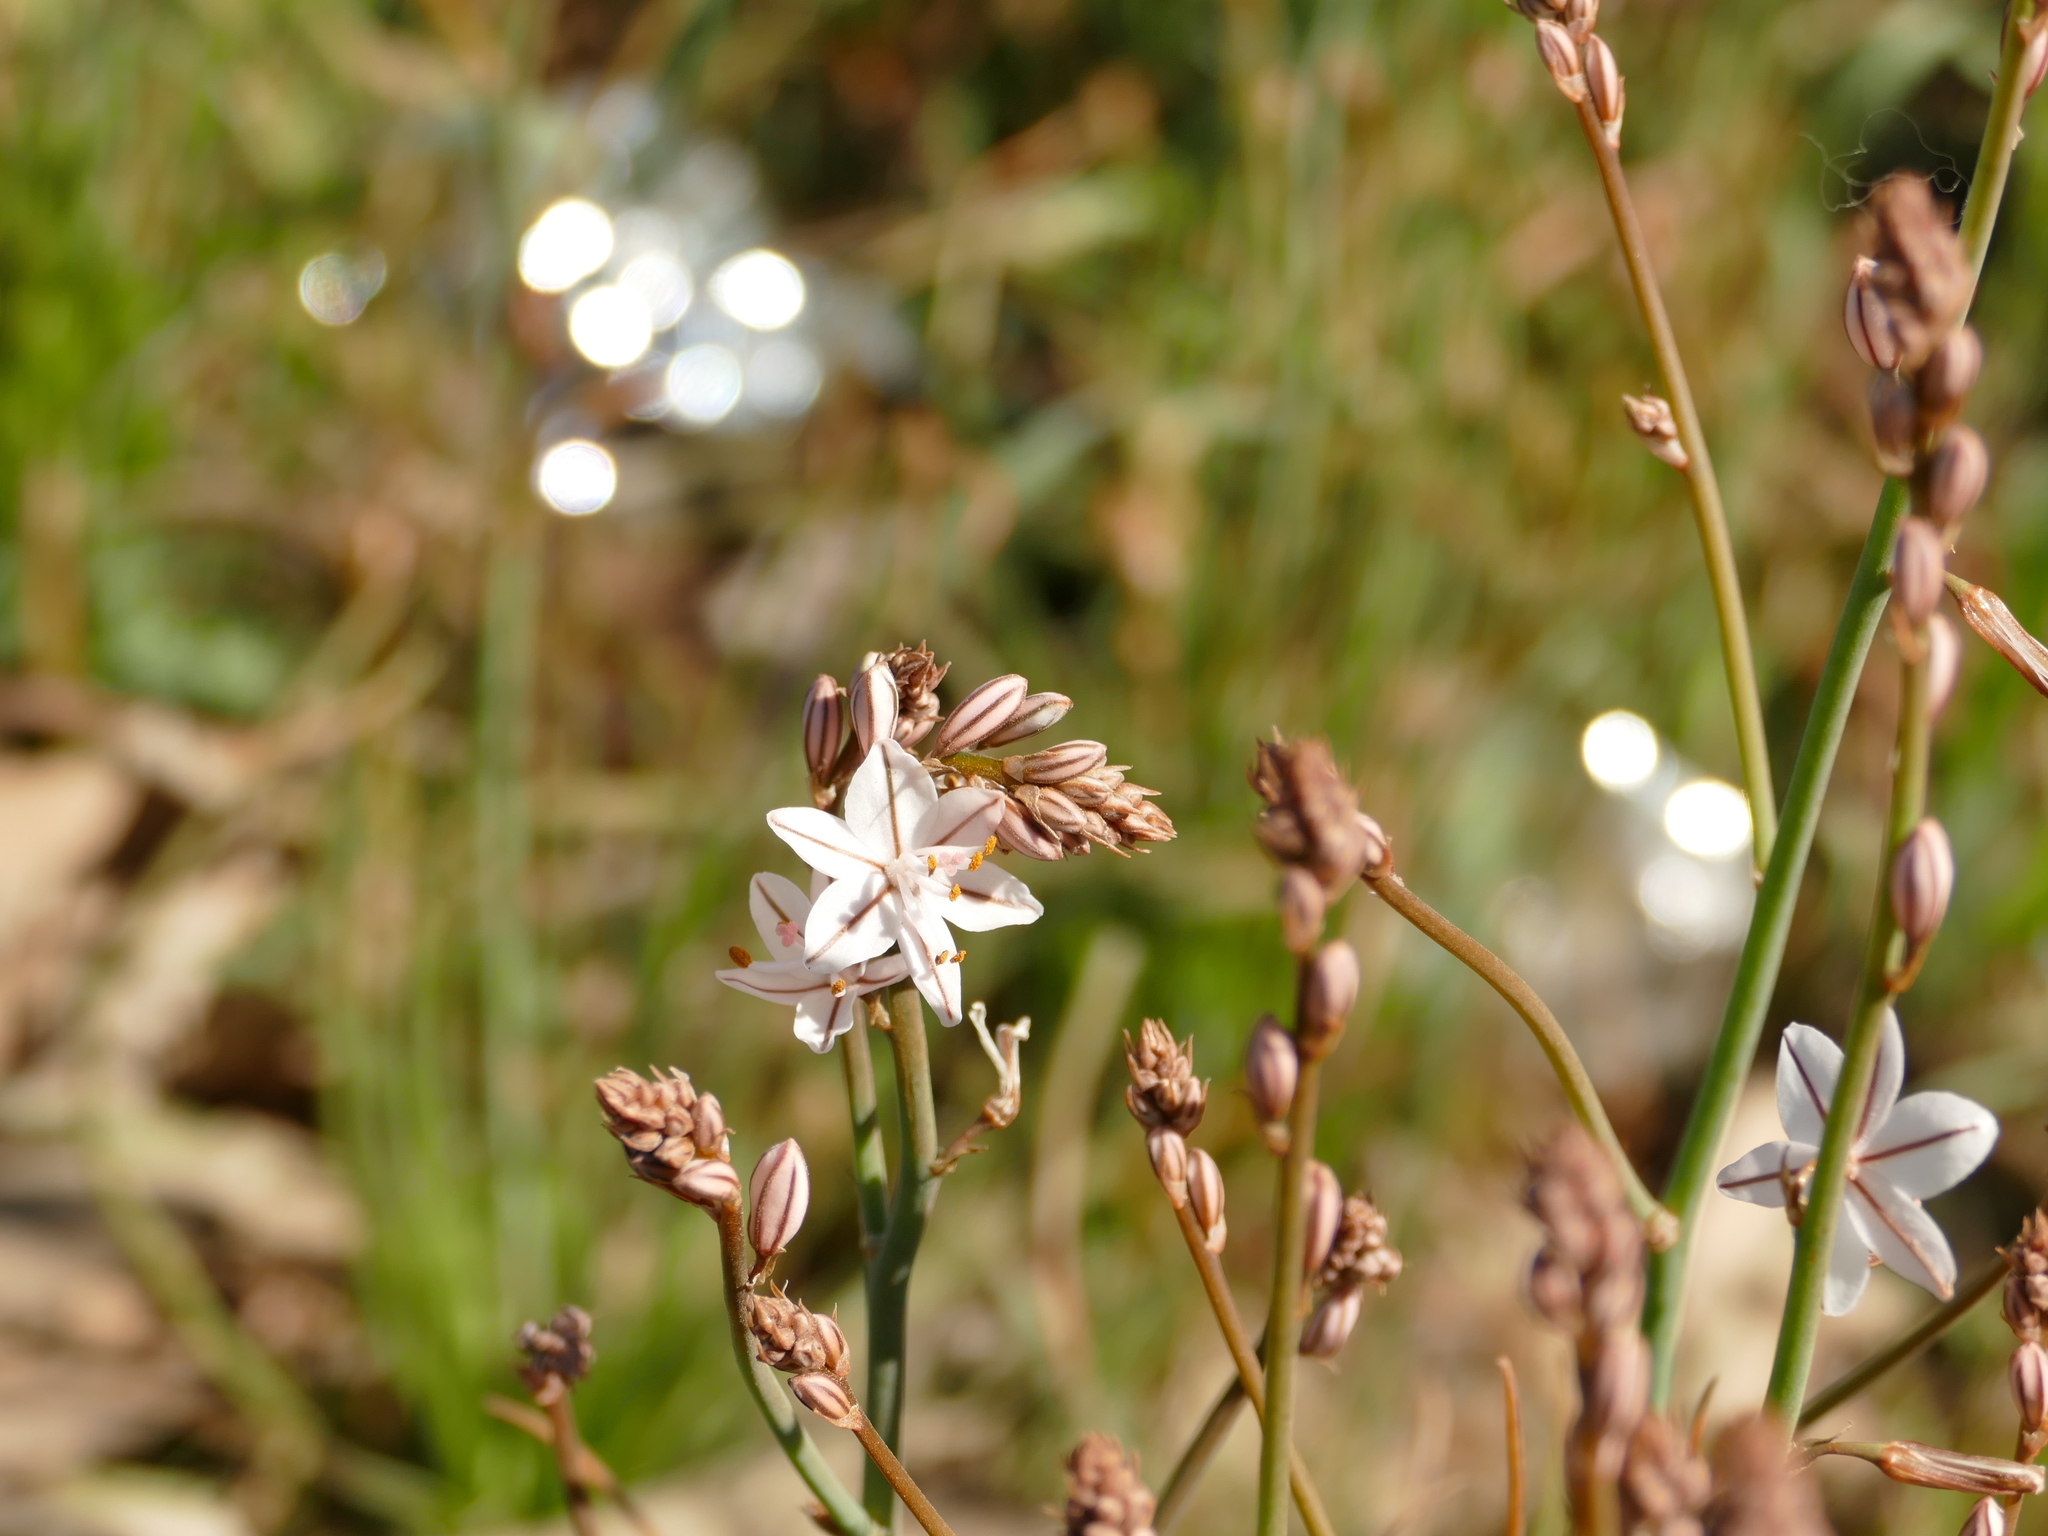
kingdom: Plantae
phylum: Tracheophyta
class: Liliopsida
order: Asparagales
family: Asphodelaceae
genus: Asphodelus
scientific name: Asphodelus fistulosus
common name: Onionweed
